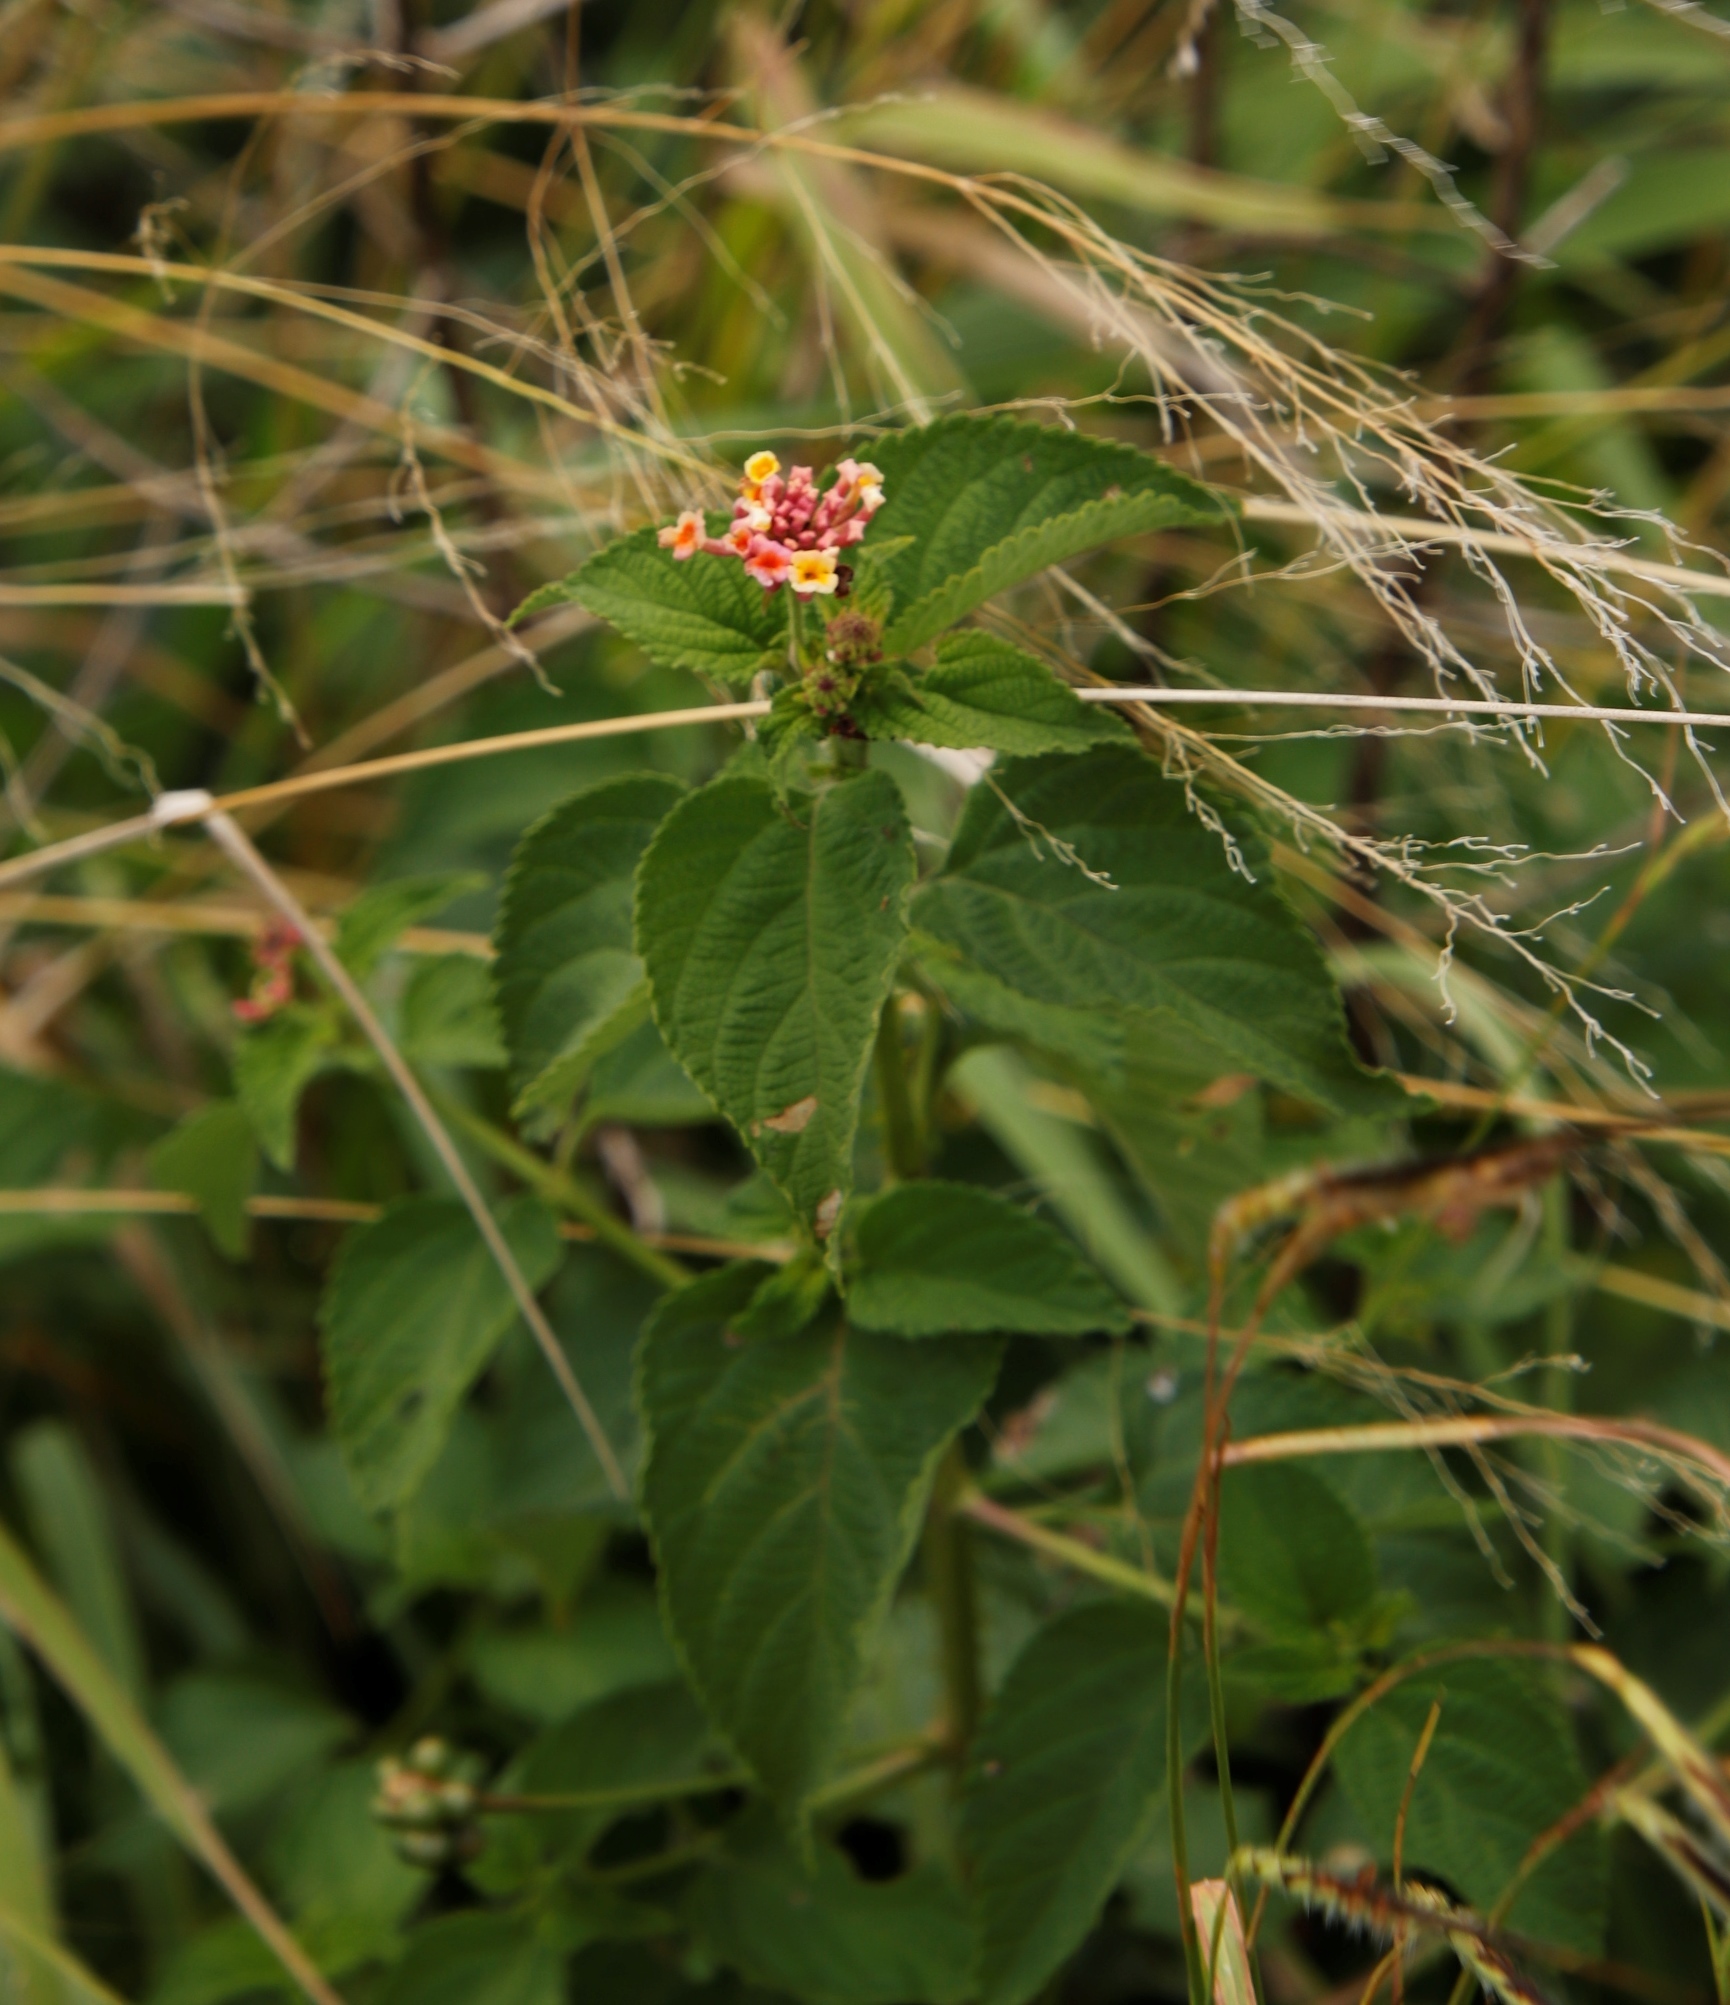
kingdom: Plantae
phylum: Tracheophyta
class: Magnoliopsida
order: Lamiales
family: Verbenaceae
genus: Lantana
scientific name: Lantana camara
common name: Lantana
